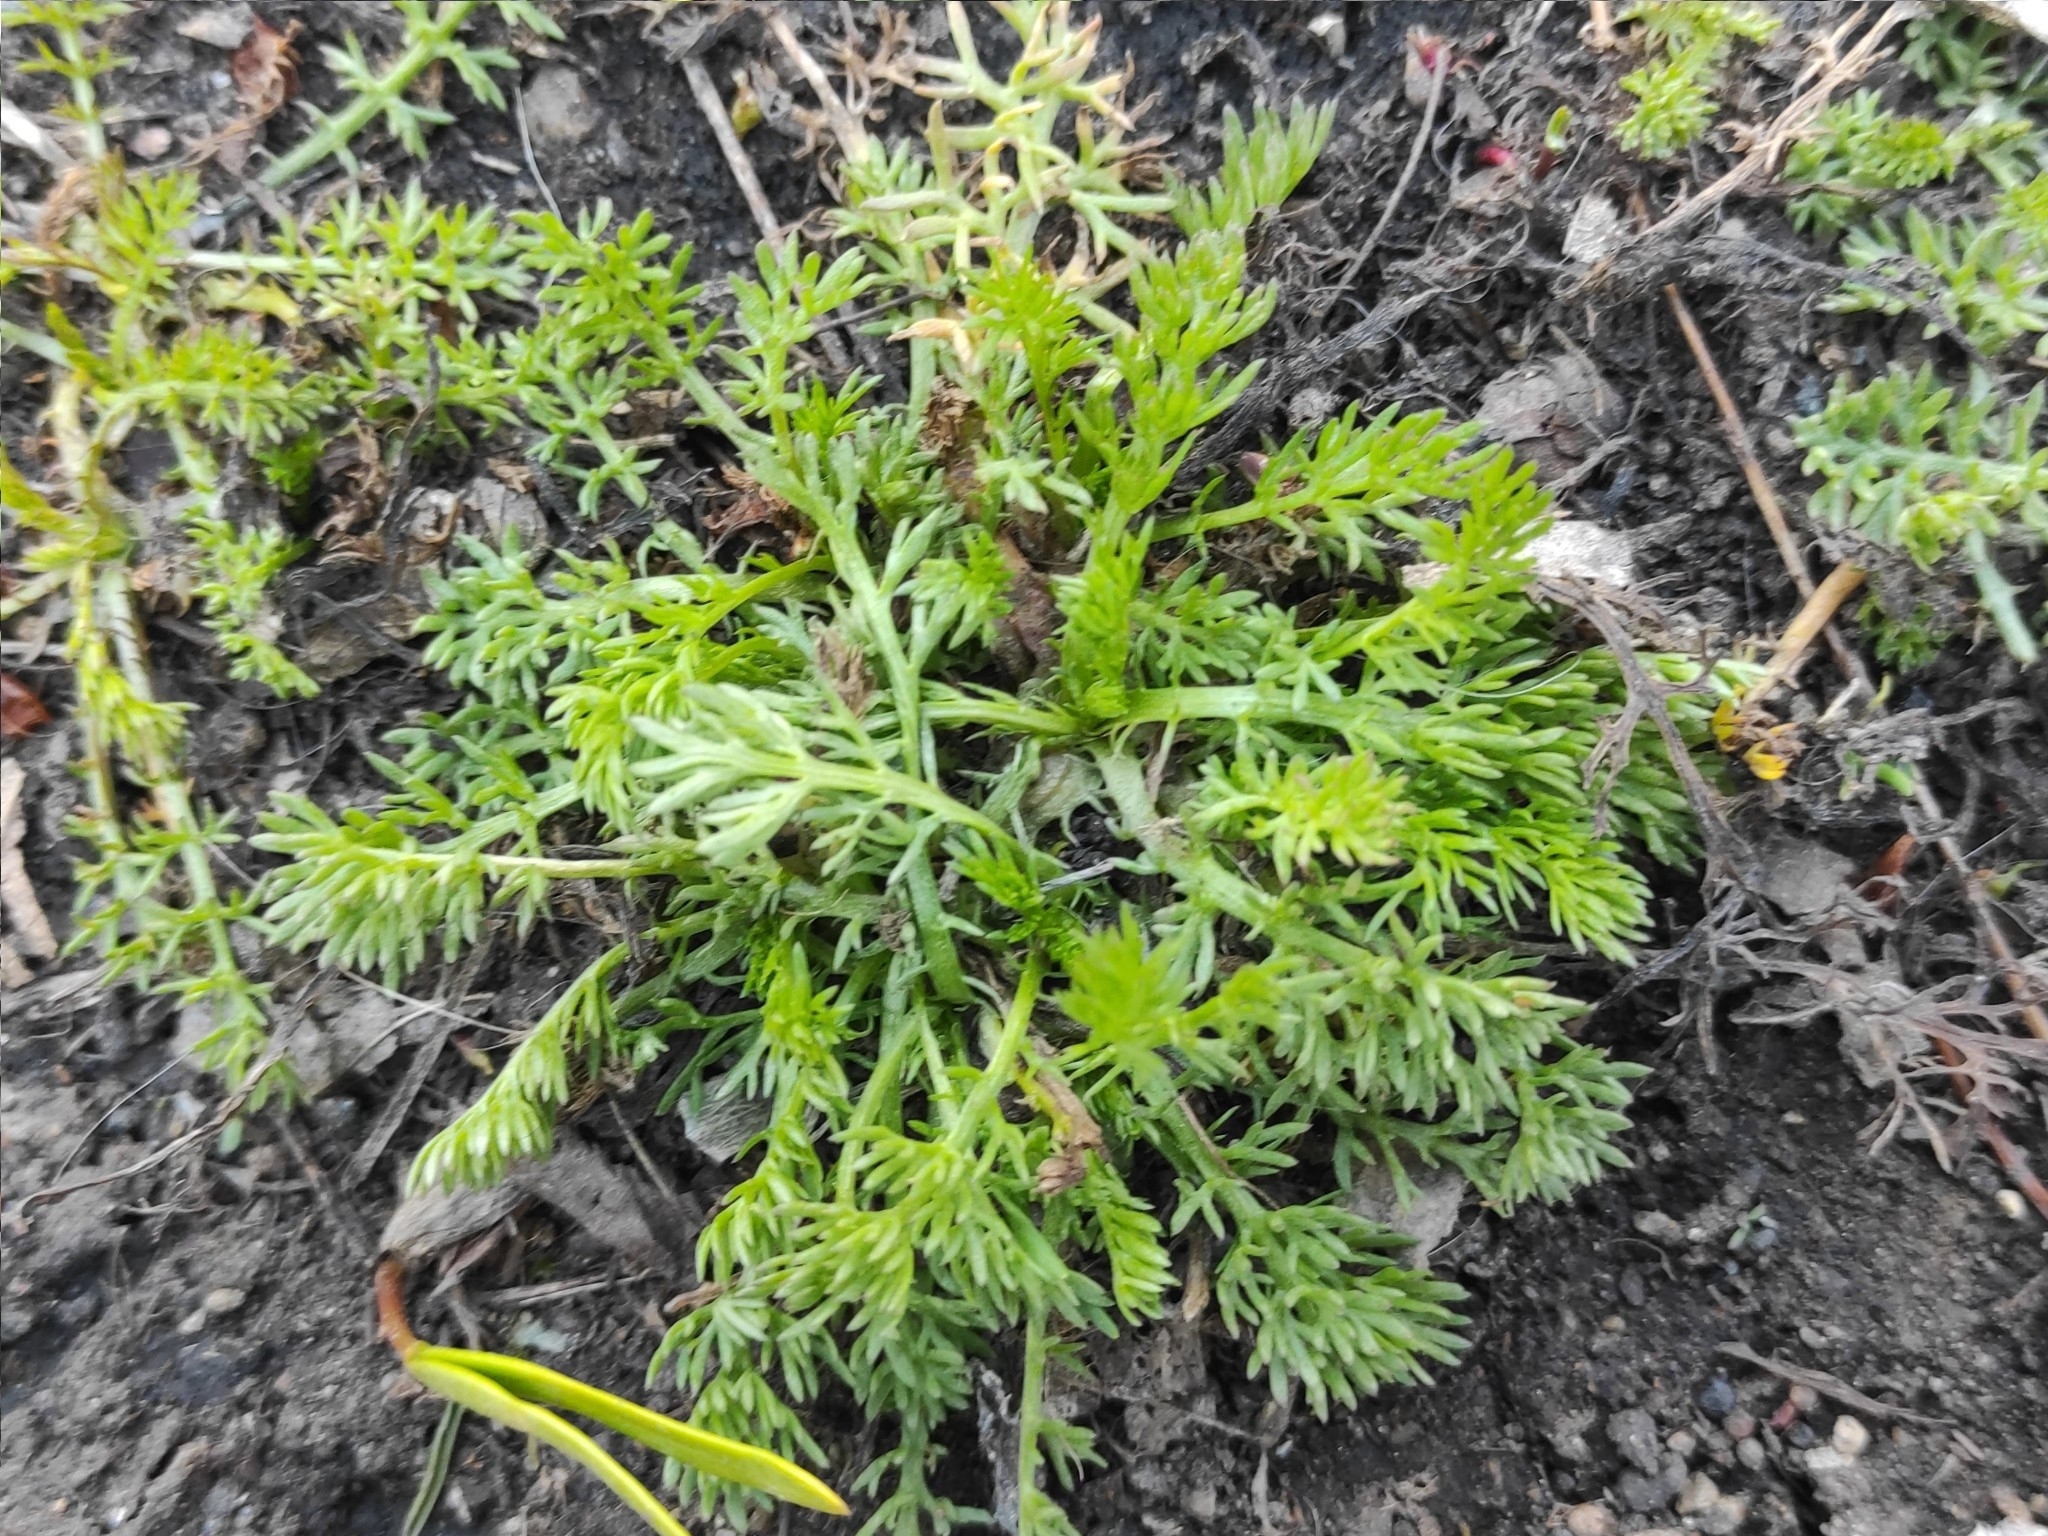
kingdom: Plantae
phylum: Tracheophyta
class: Magnoliopsida
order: Asterales
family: Asteraceae
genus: Tripleurospermum
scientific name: Tripleurospermum inodorum
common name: Scentless mayweed
